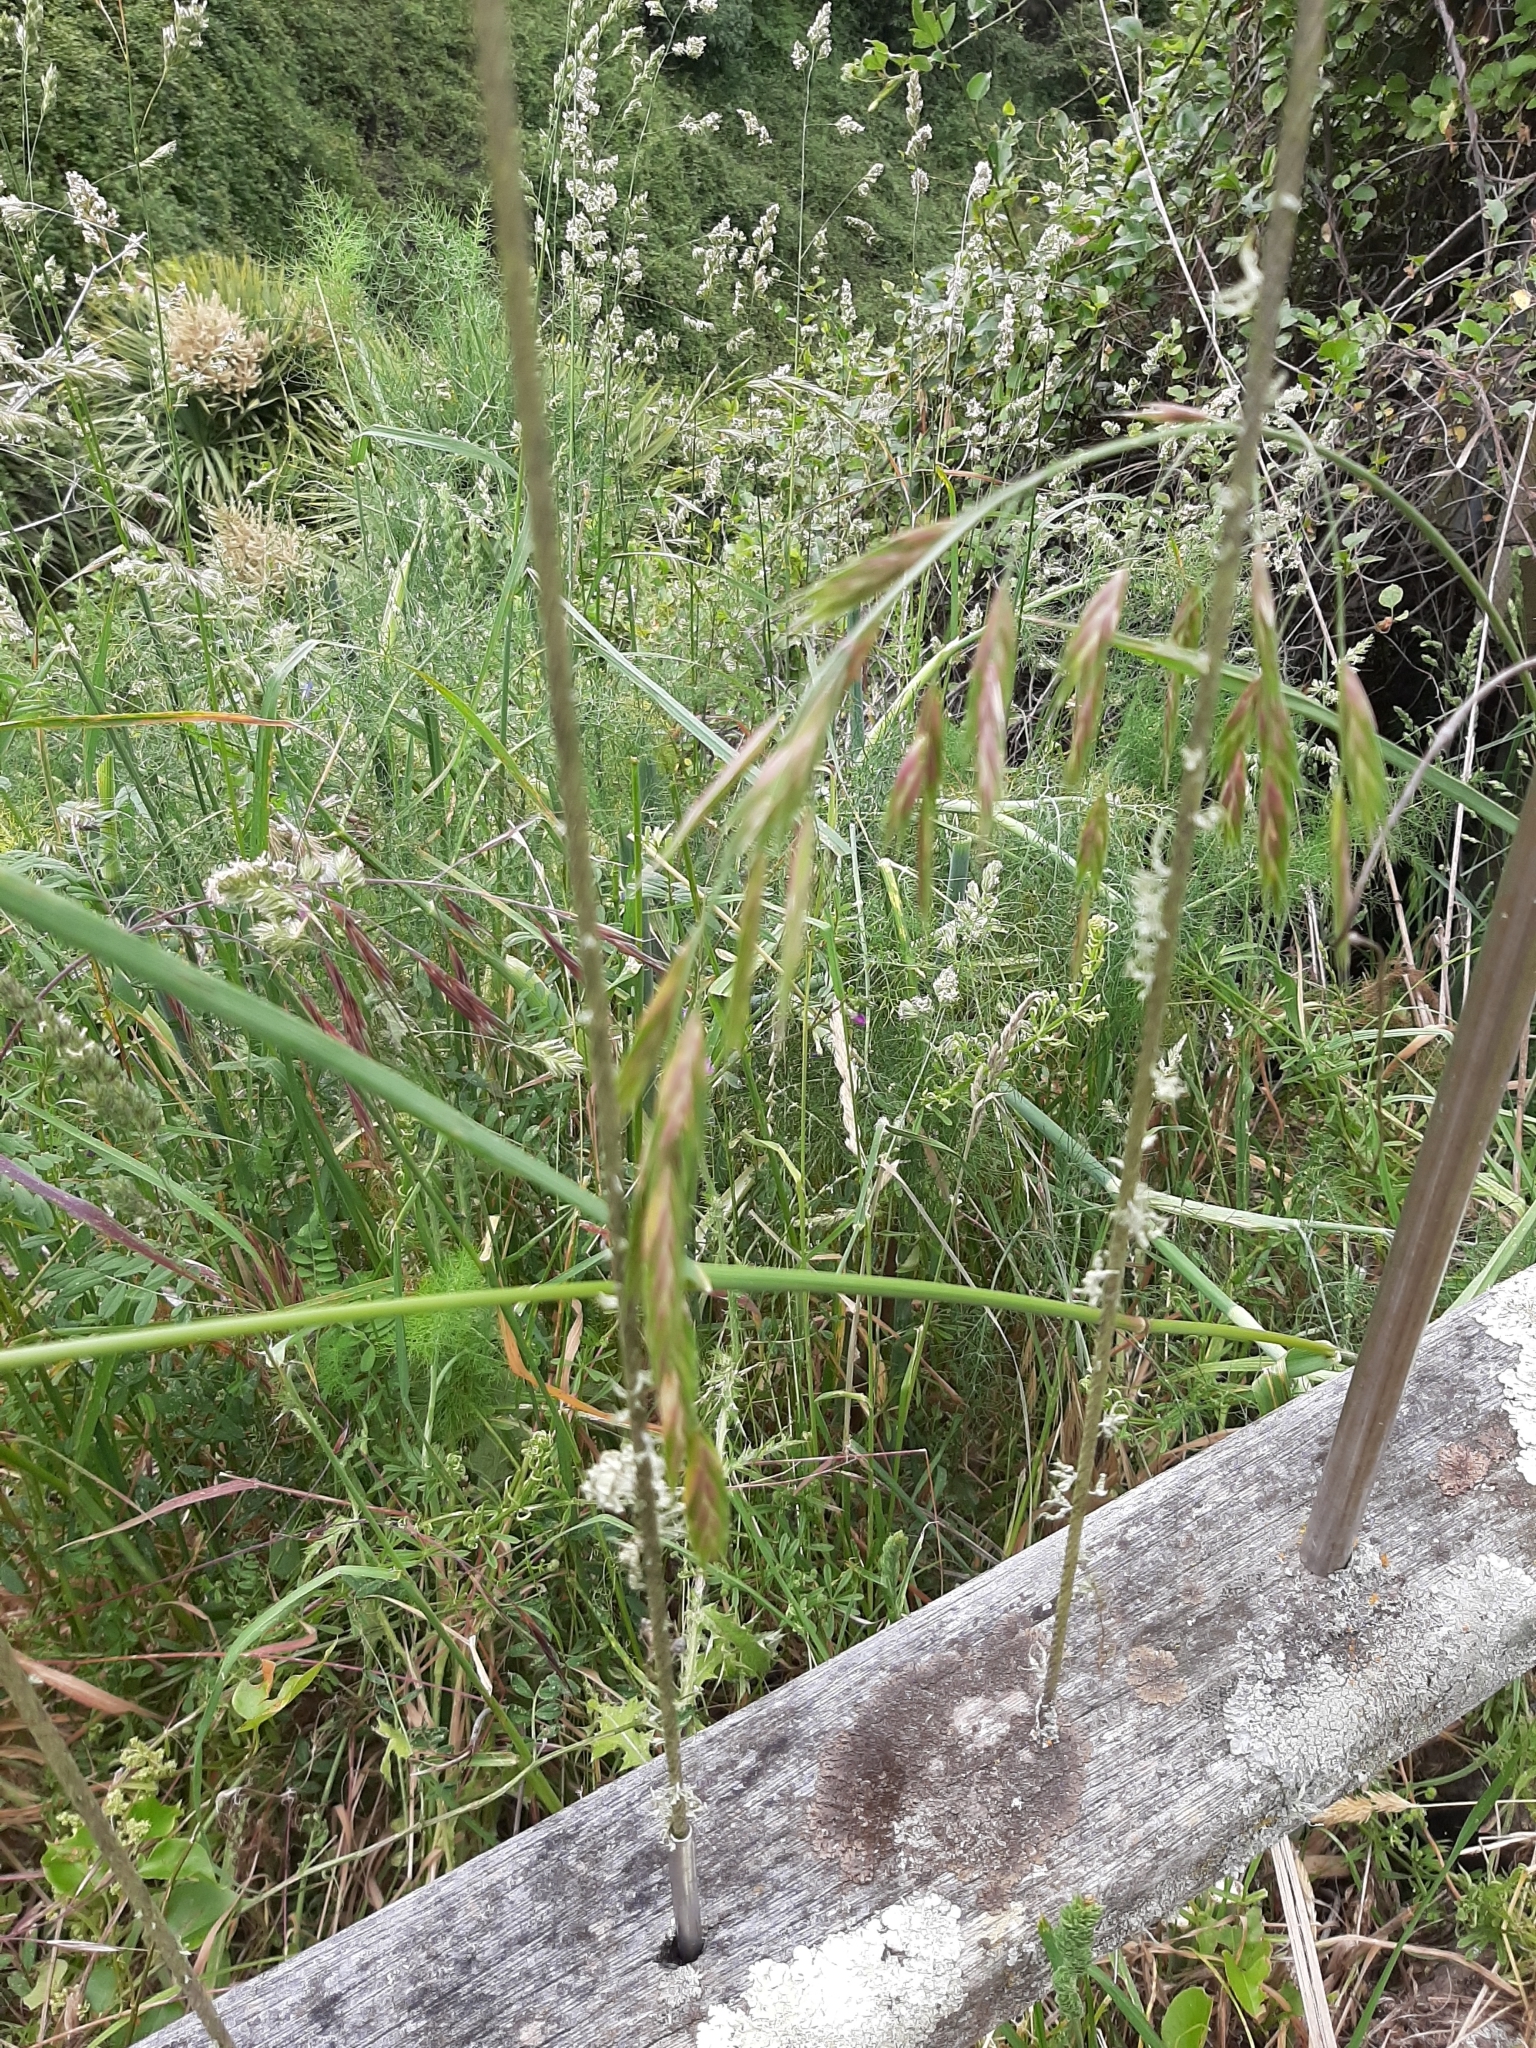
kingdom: Plantae
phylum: Tracheophyta
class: Liliopsida
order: Poales
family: Poaceae
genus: Bromus
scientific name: Bromus catharticus
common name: Rescuegrass
